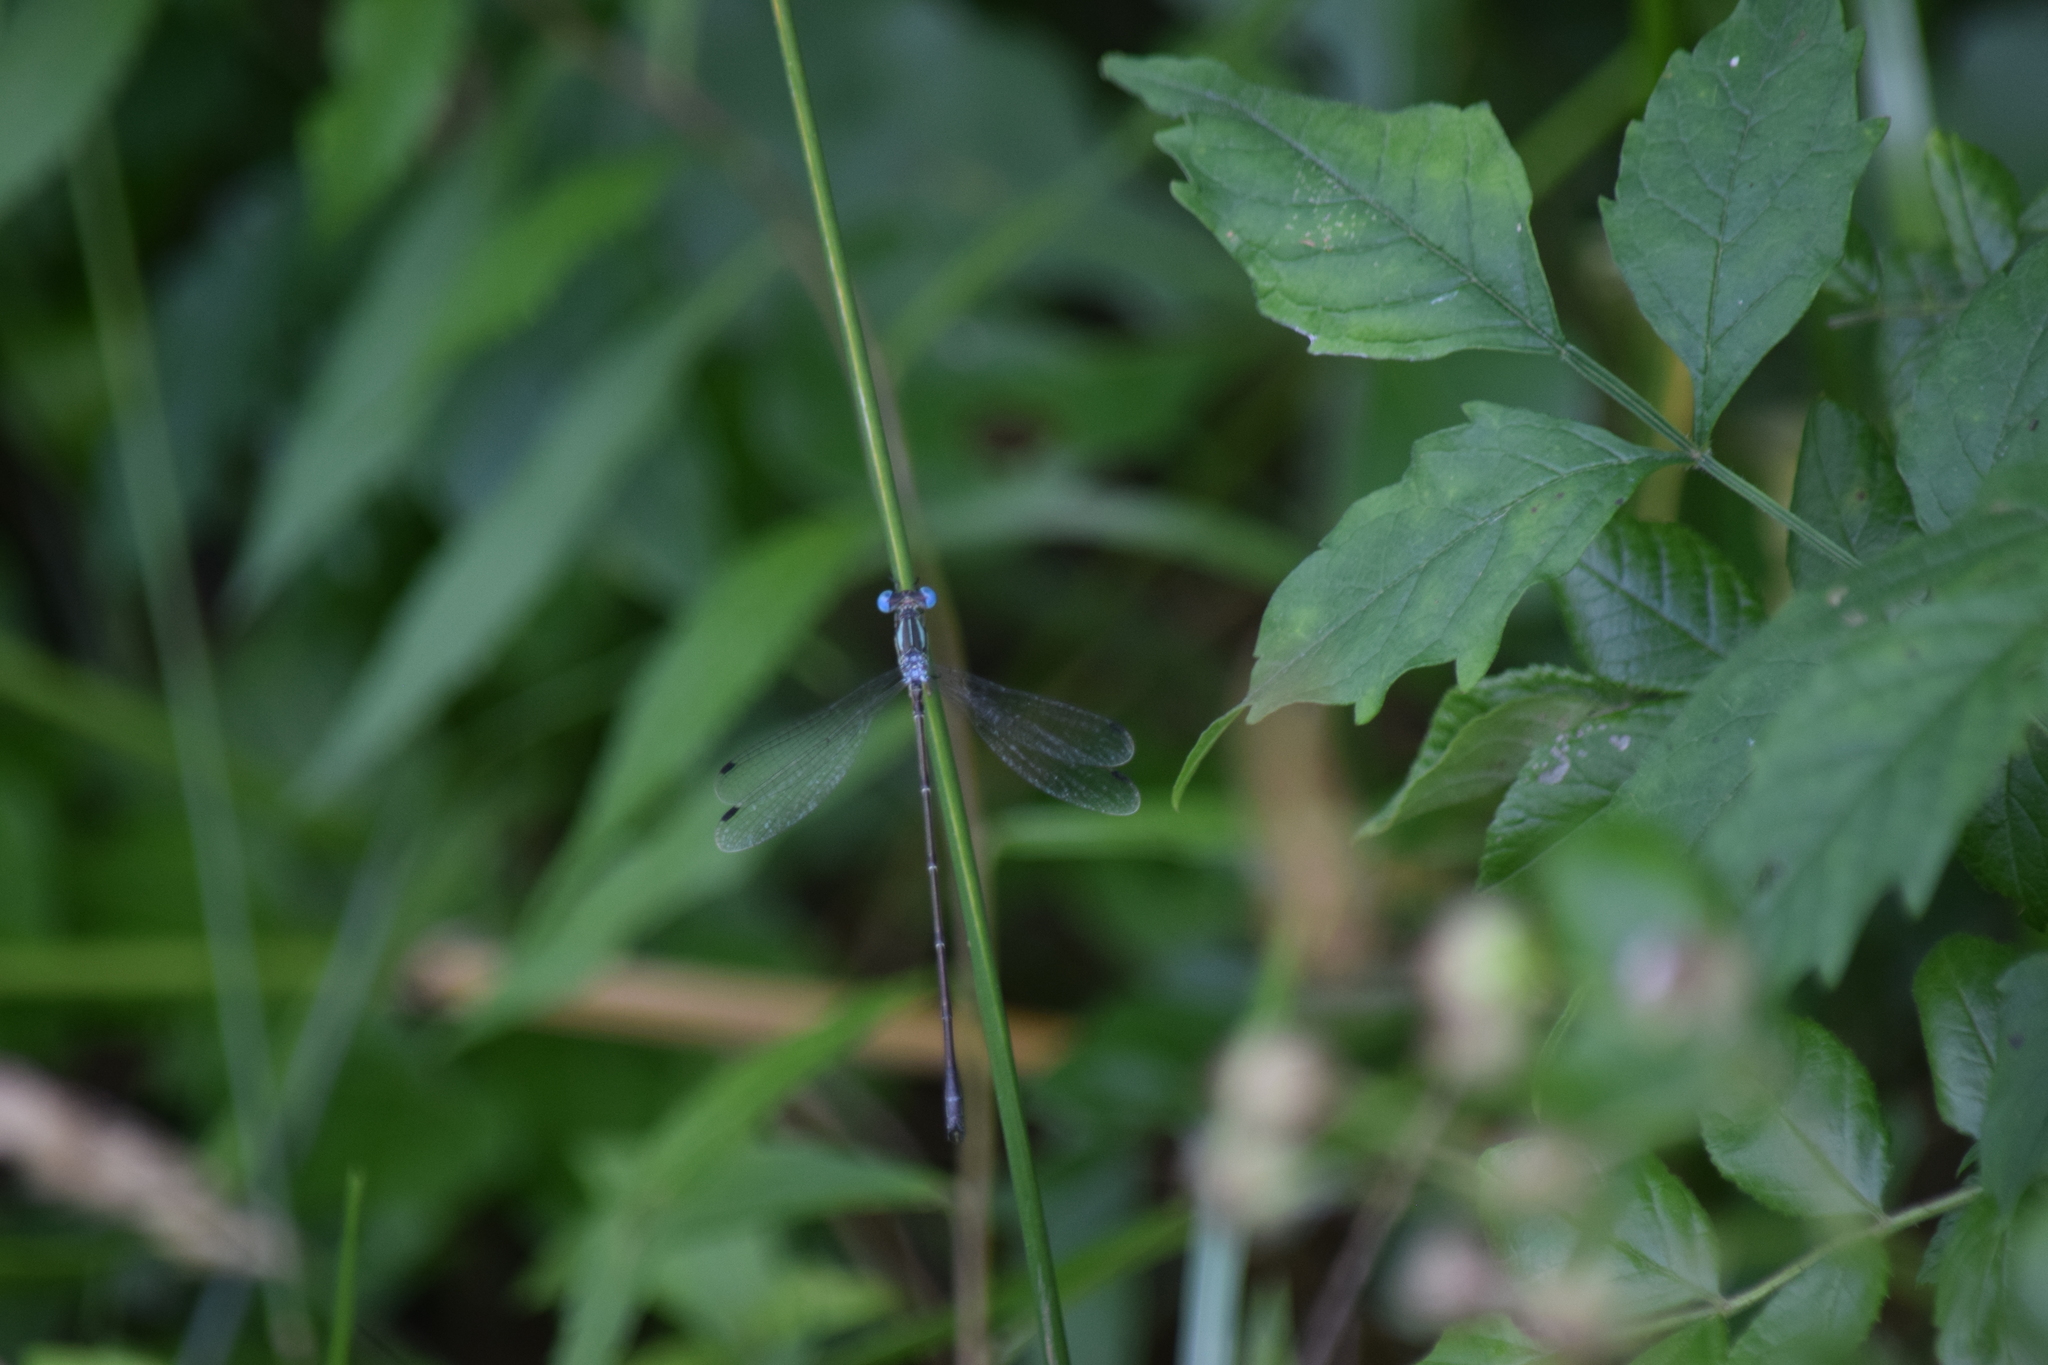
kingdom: Animalia
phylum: Arthropoda
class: Insecta
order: Odonata
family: Lestidae
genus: Lestes
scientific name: Lestes rectangularis
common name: Slender spreadwing
